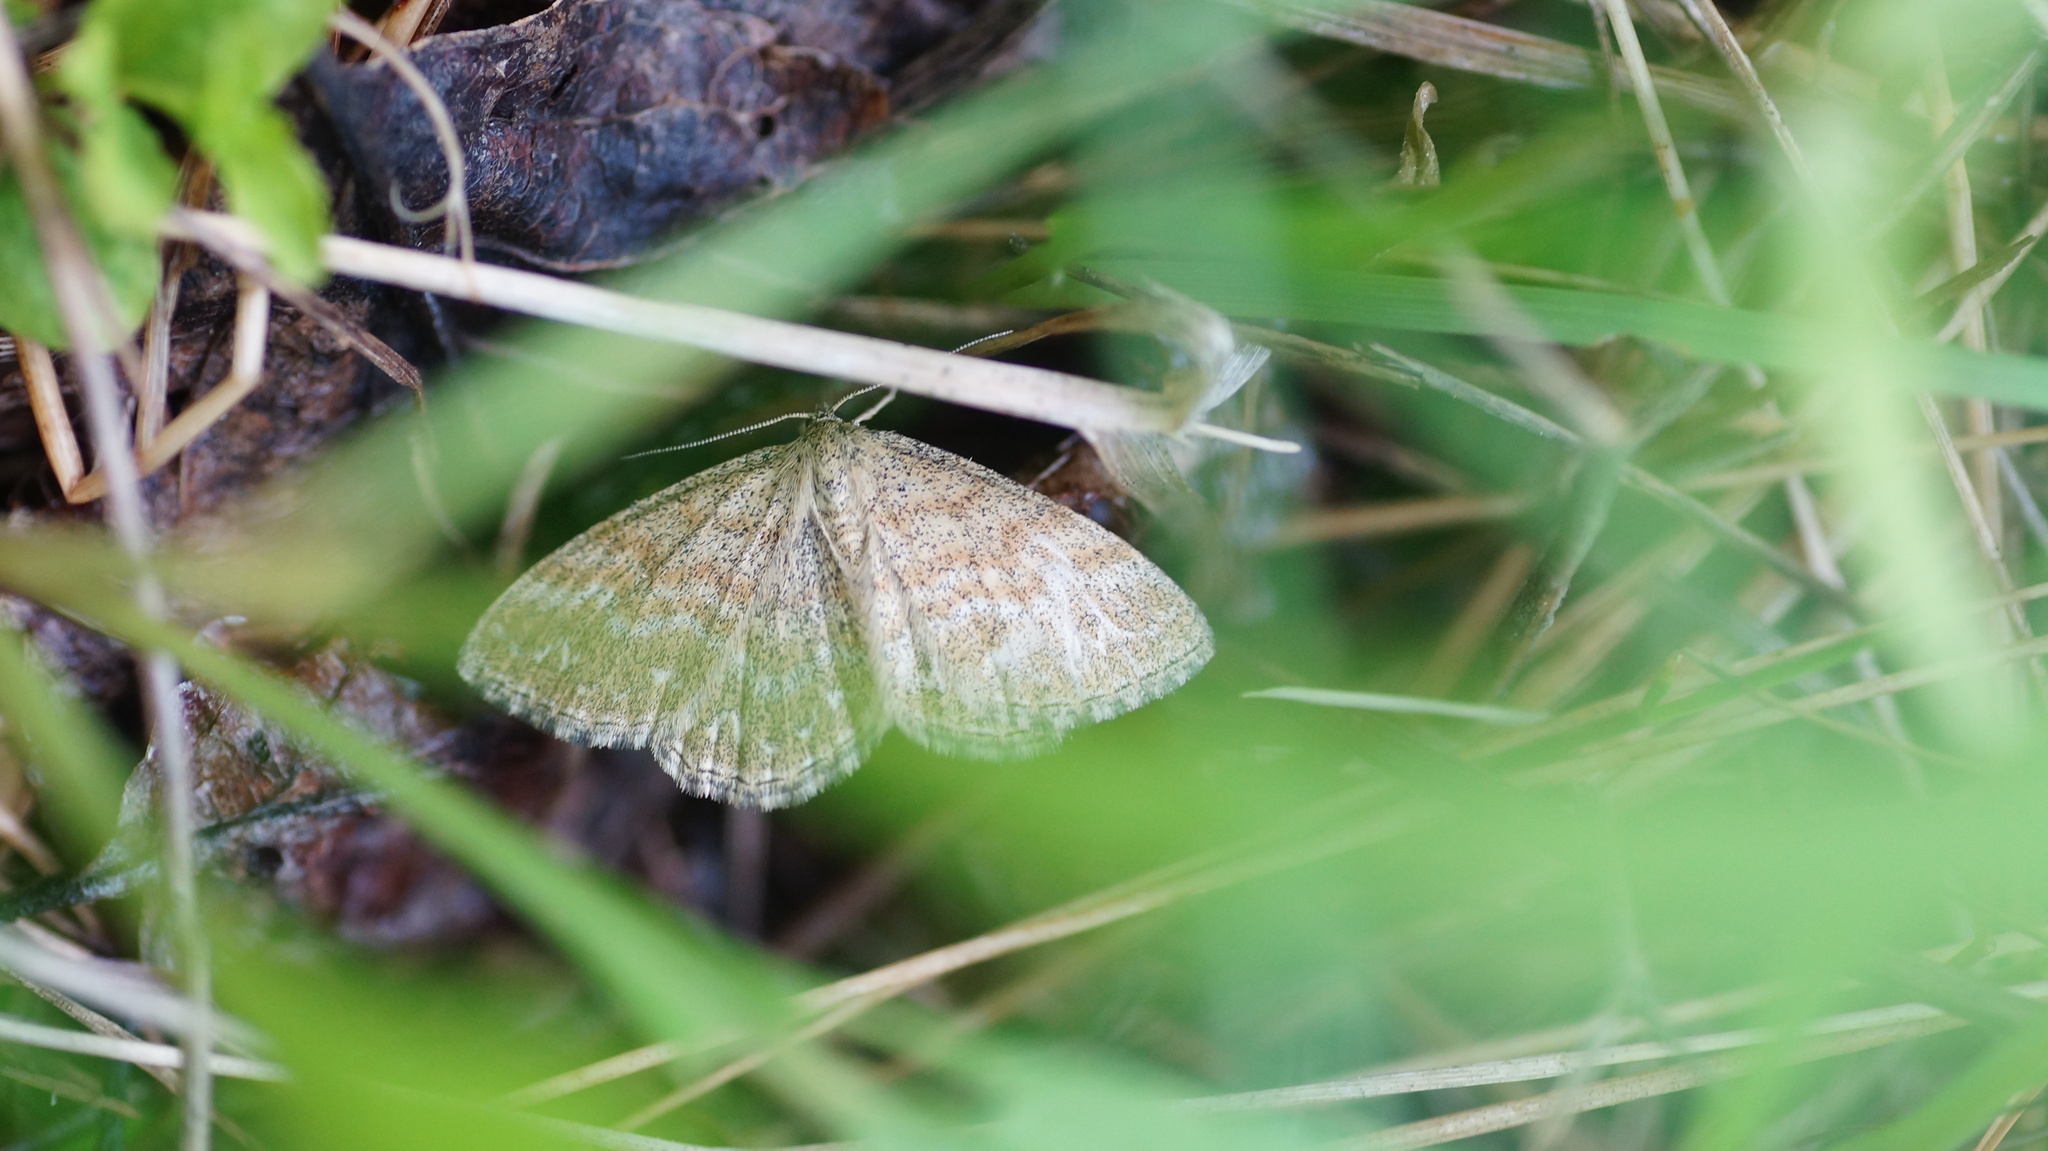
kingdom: Animalia
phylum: Arthropoda
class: Insecta
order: Lepidoptera
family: Geometridae
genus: Scopula
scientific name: Scopula immorata
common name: Lewes wave
